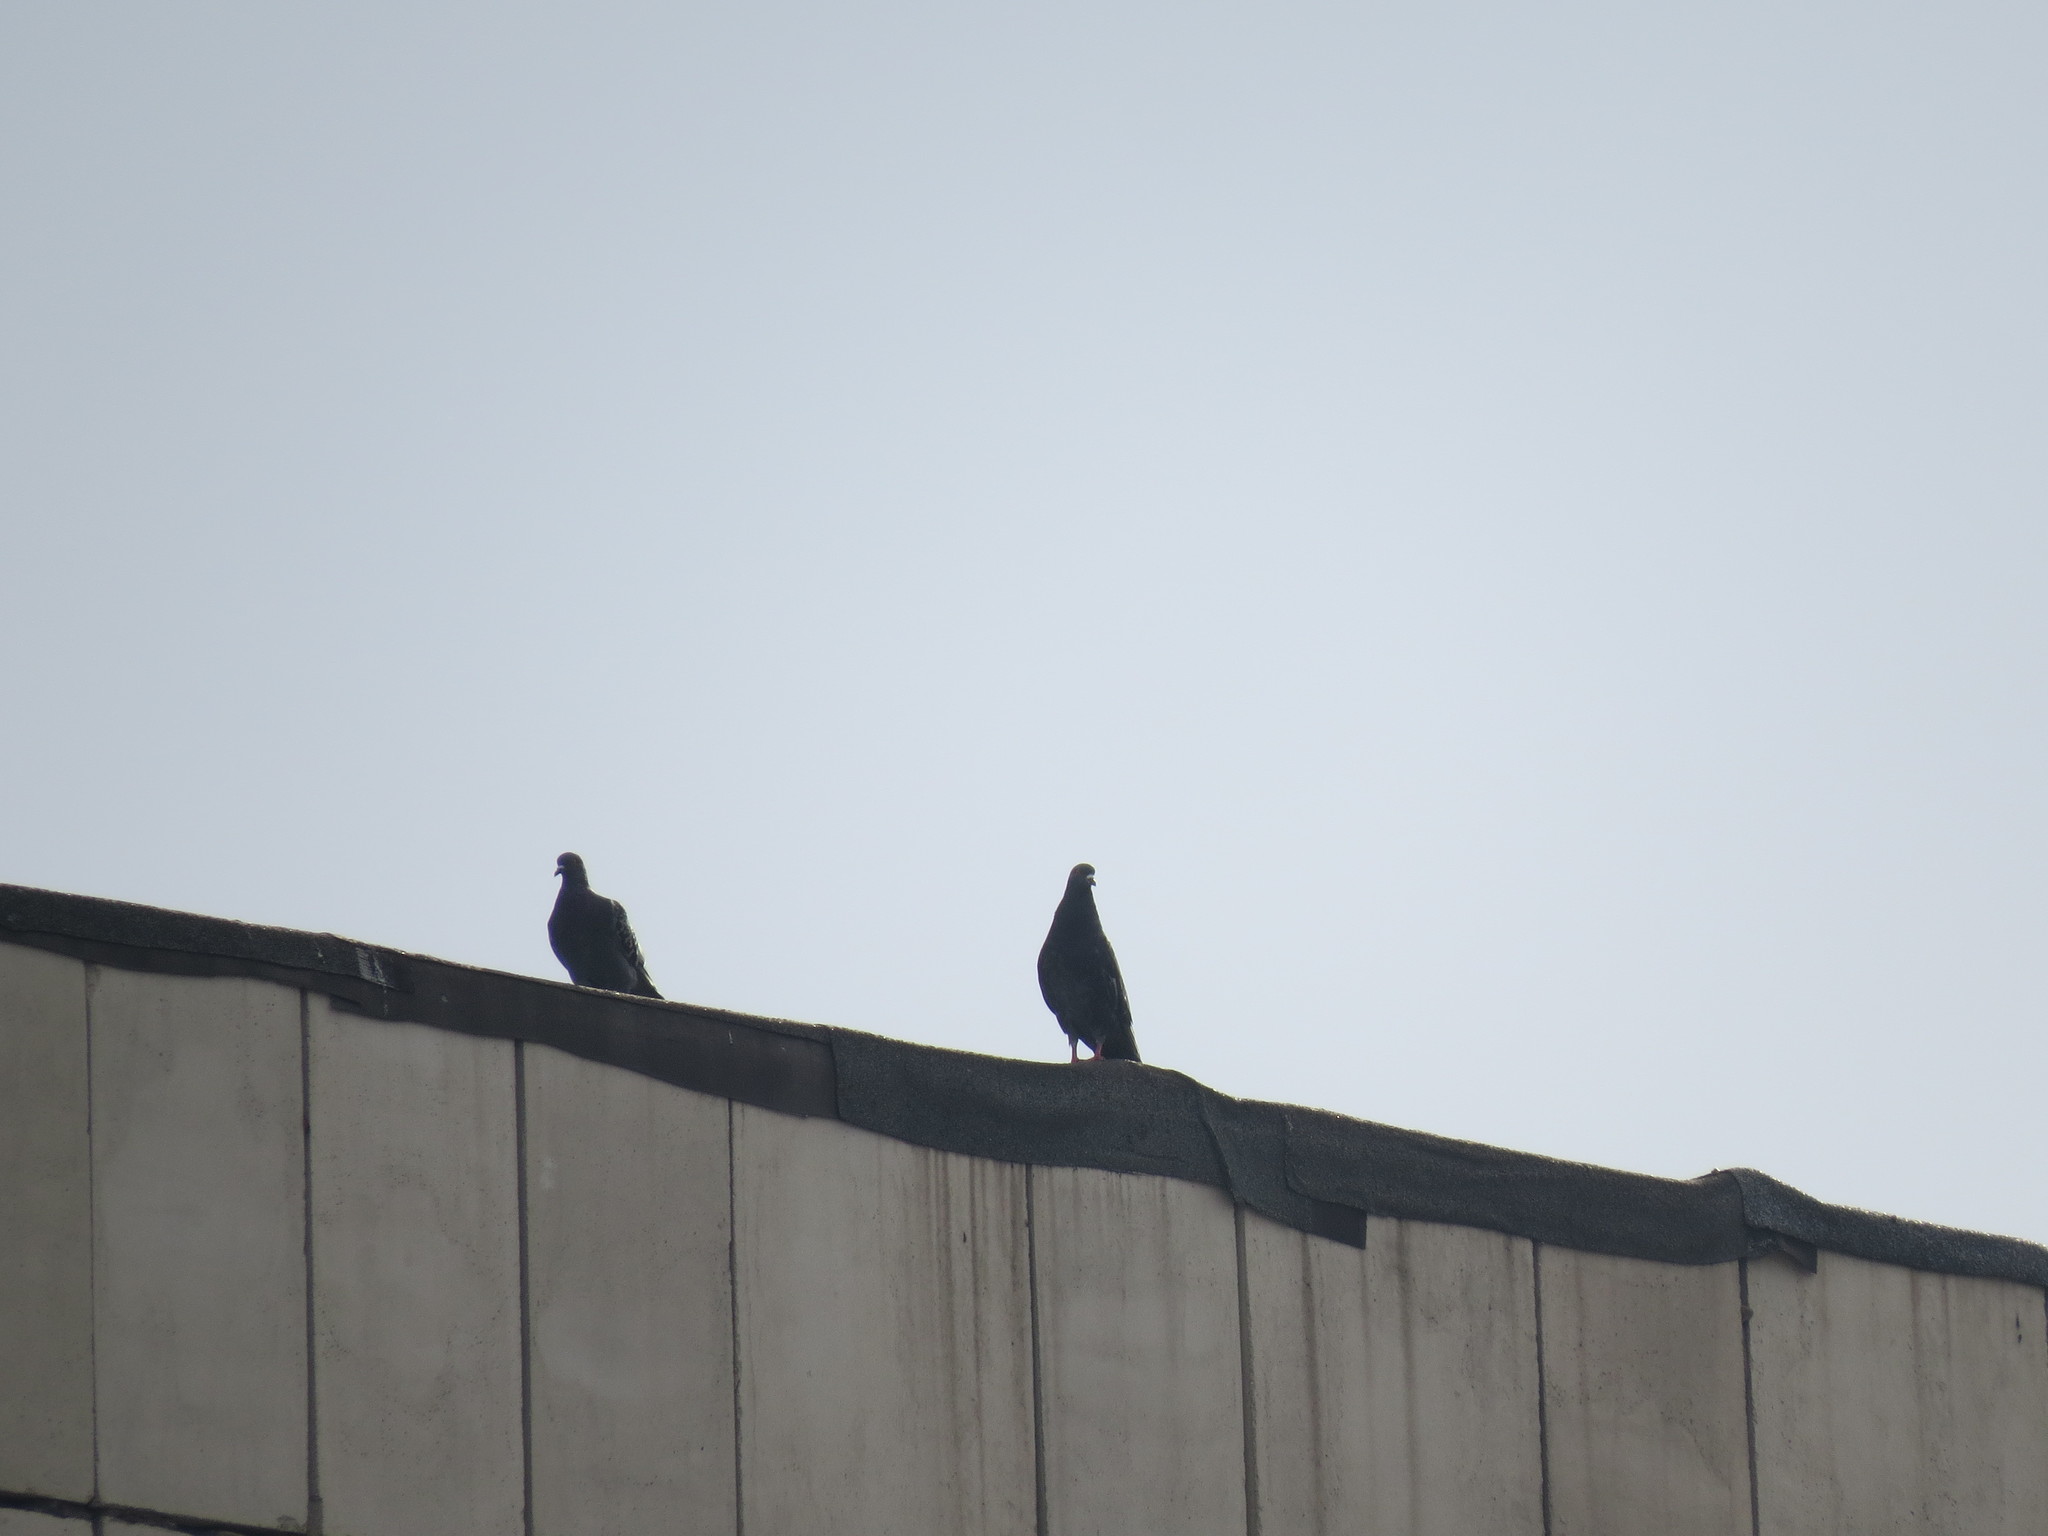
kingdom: Animalia
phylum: Chordata
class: Aves
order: Columbiformes
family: Columbidae
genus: Columba
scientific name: Columba livia
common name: Rock pigeon
